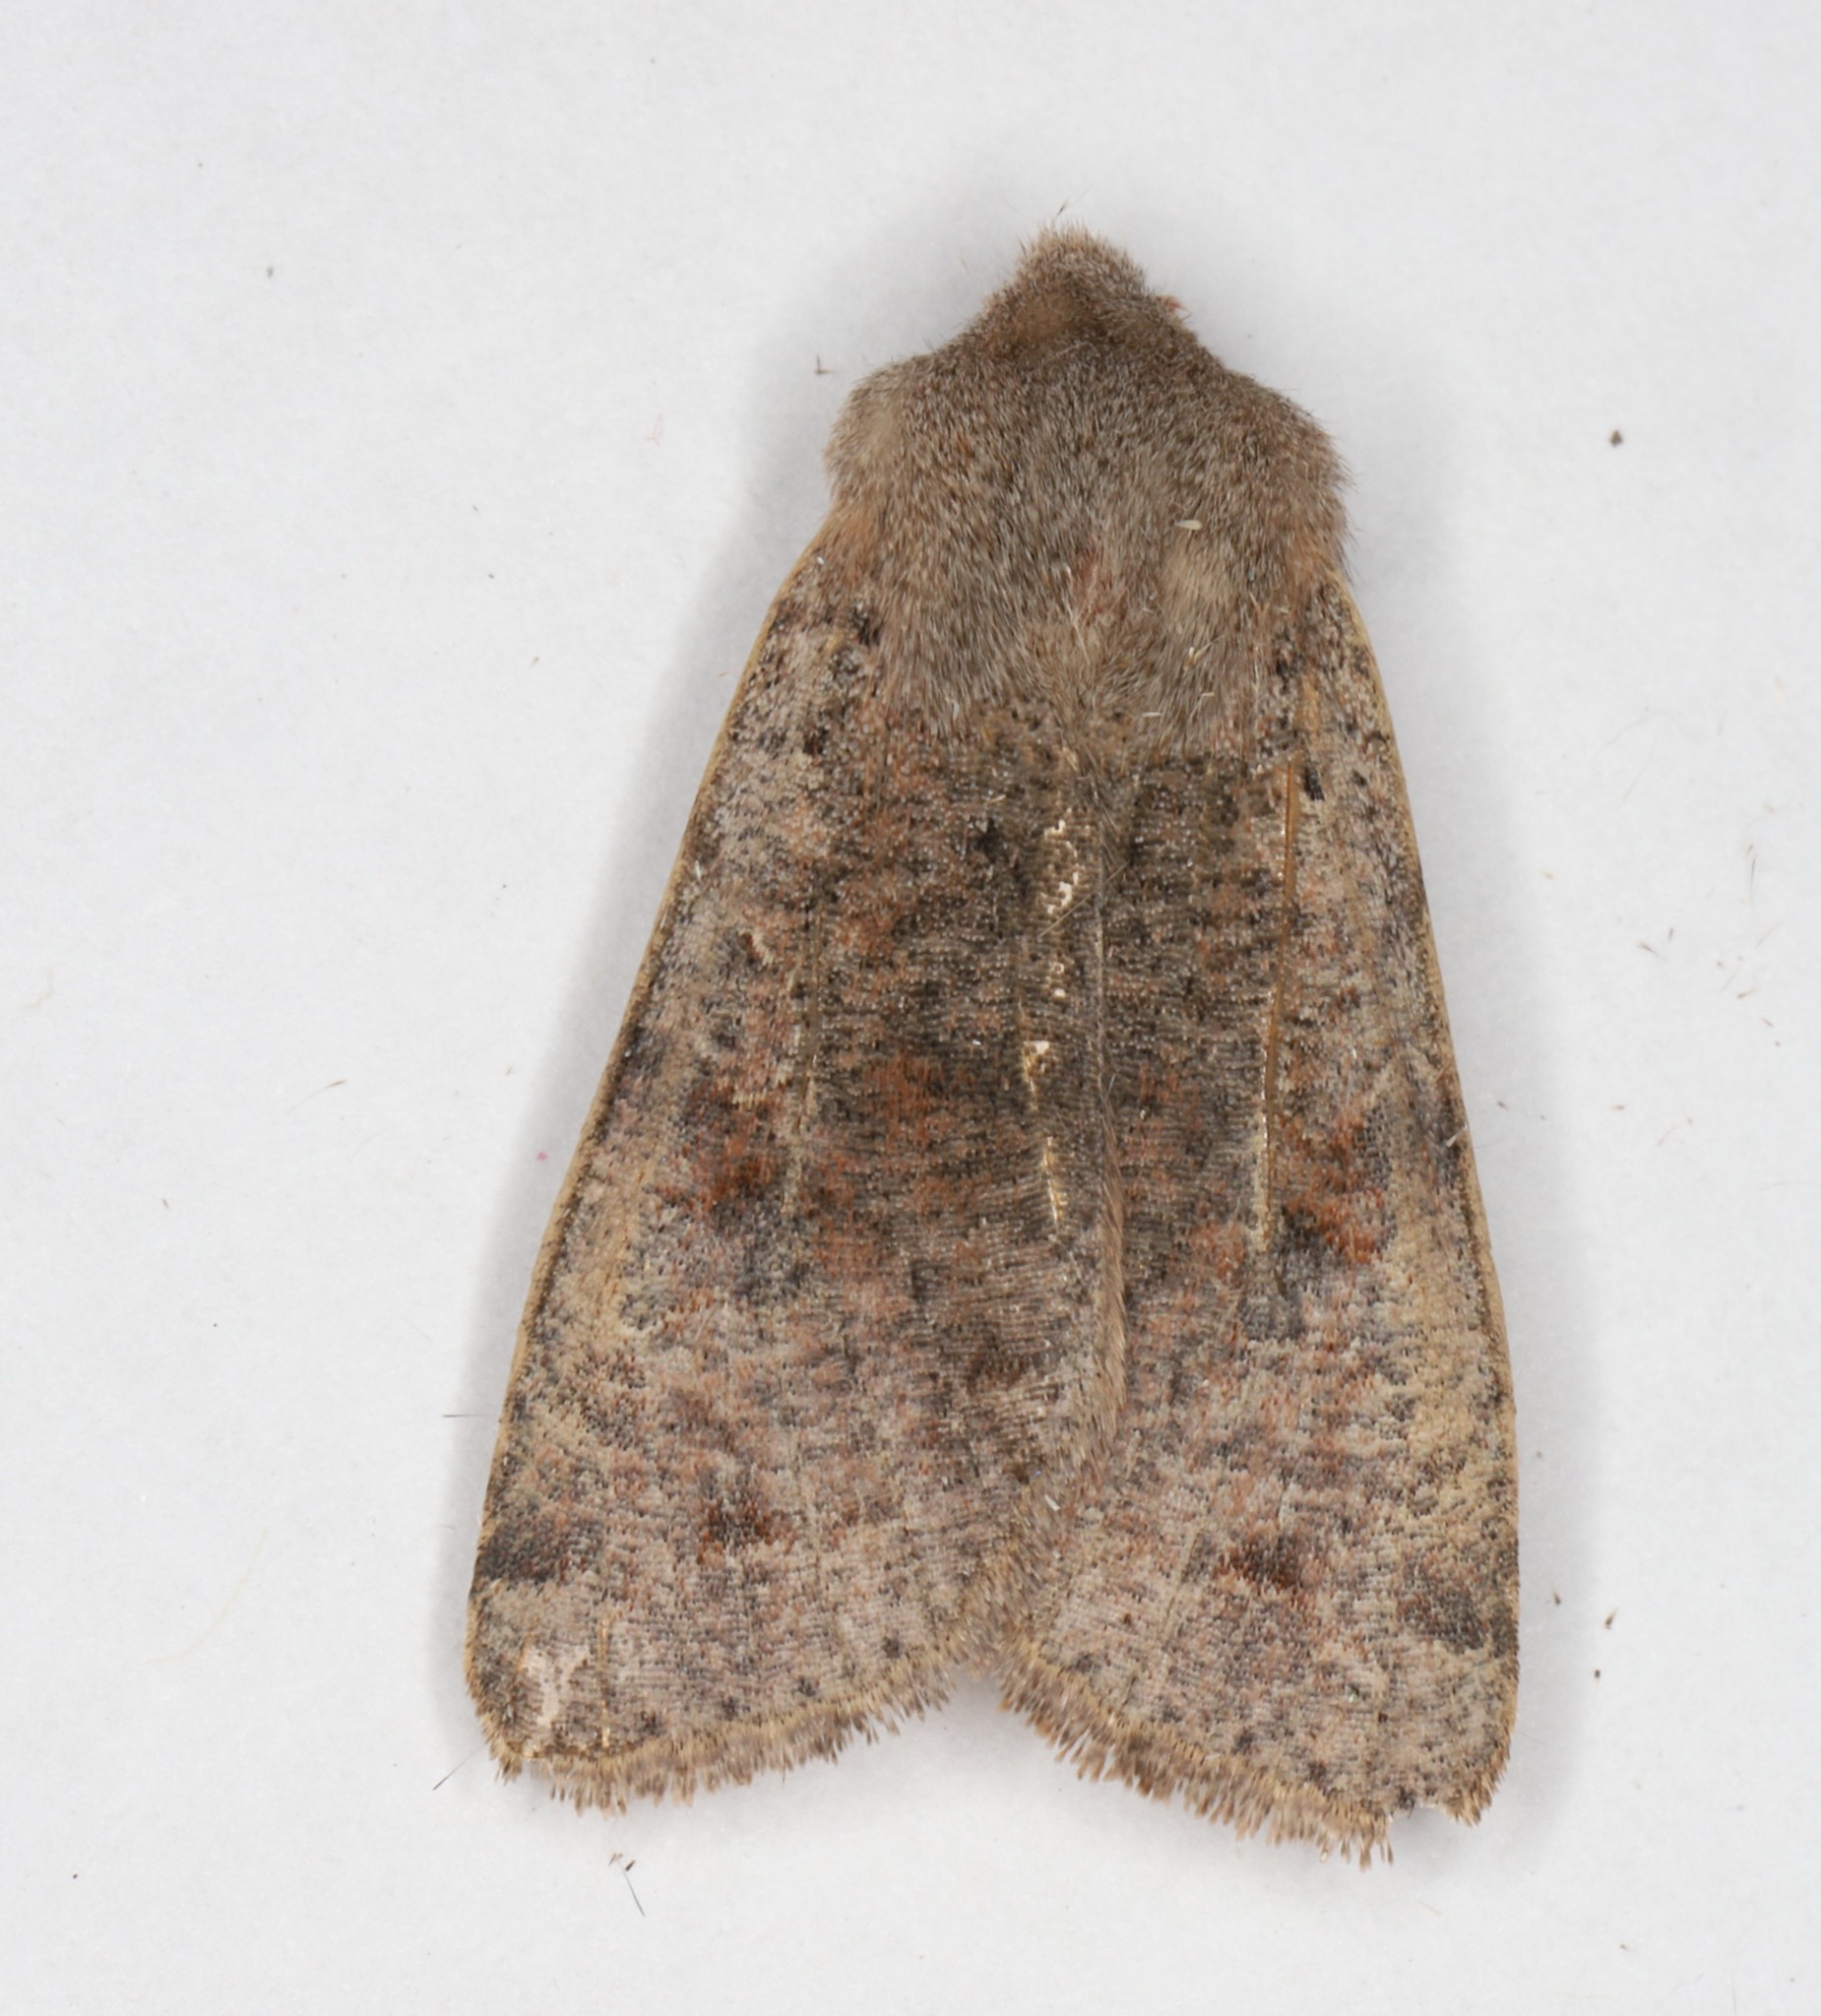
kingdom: Animalia
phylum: Arthropoda
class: Insecta
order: Lepidoptera
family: Noctuidae
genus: Orthosia
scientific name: Orthosia hibisci
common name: Green fruitworm
